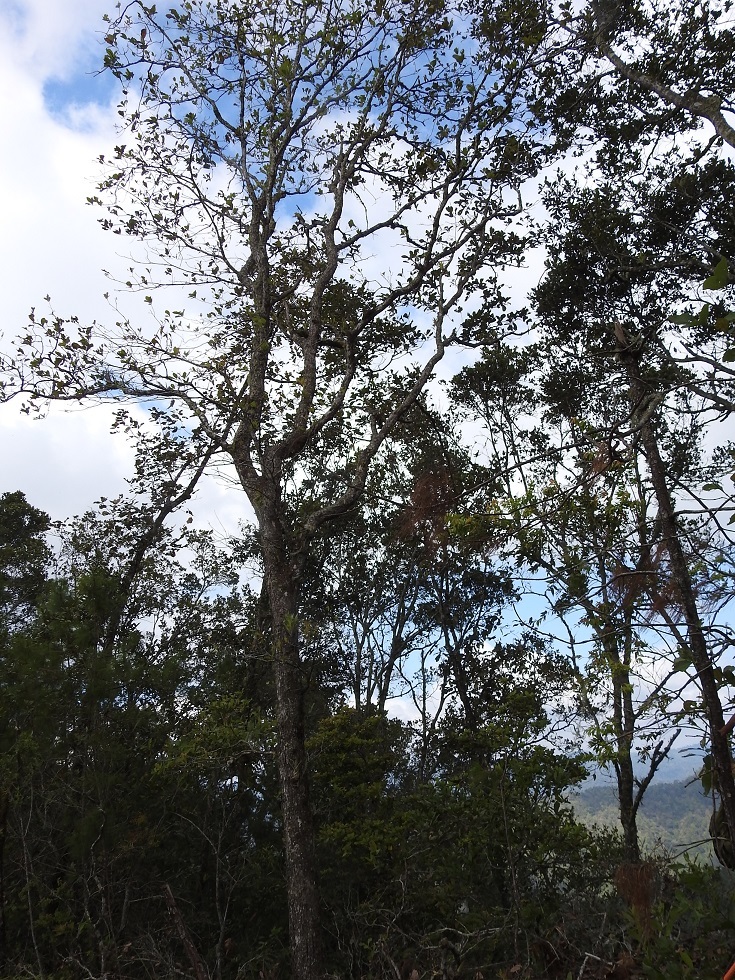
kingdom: Plantae
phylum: Tracheophyta
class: Magnoliopsida
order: Fagales
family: Fagaceae
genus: Quercus
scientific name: Quercus glaucescens
